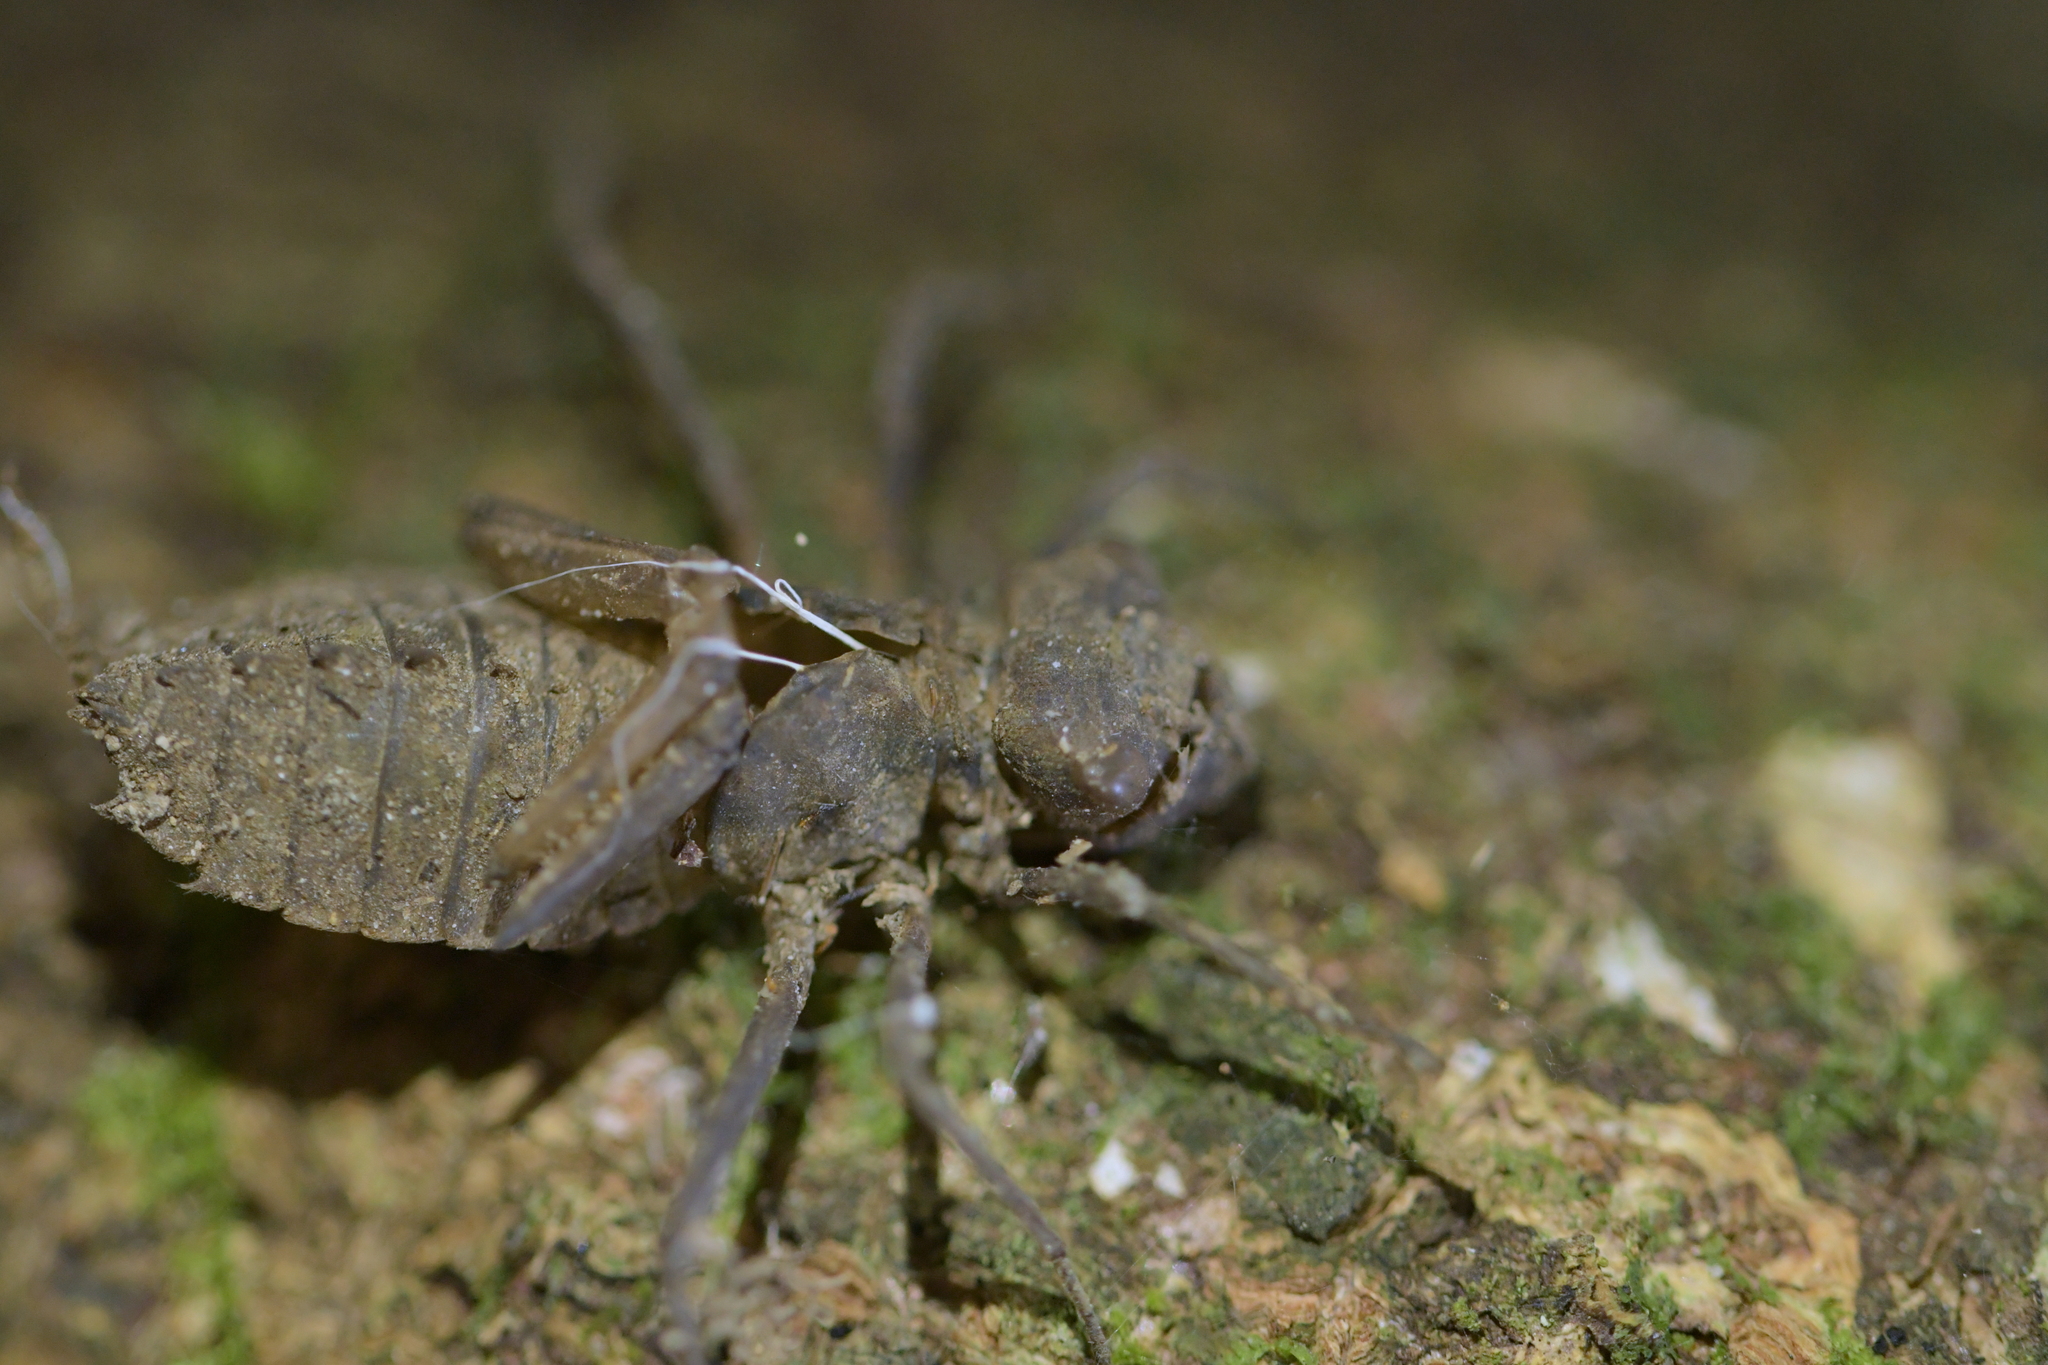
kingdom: Animalia
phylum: Arthropoda
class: Insecta
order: Odonata
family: Corduliidae
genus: Antipodochlora
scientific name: Antipodochlora braueri
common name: Dusk dragonfly
